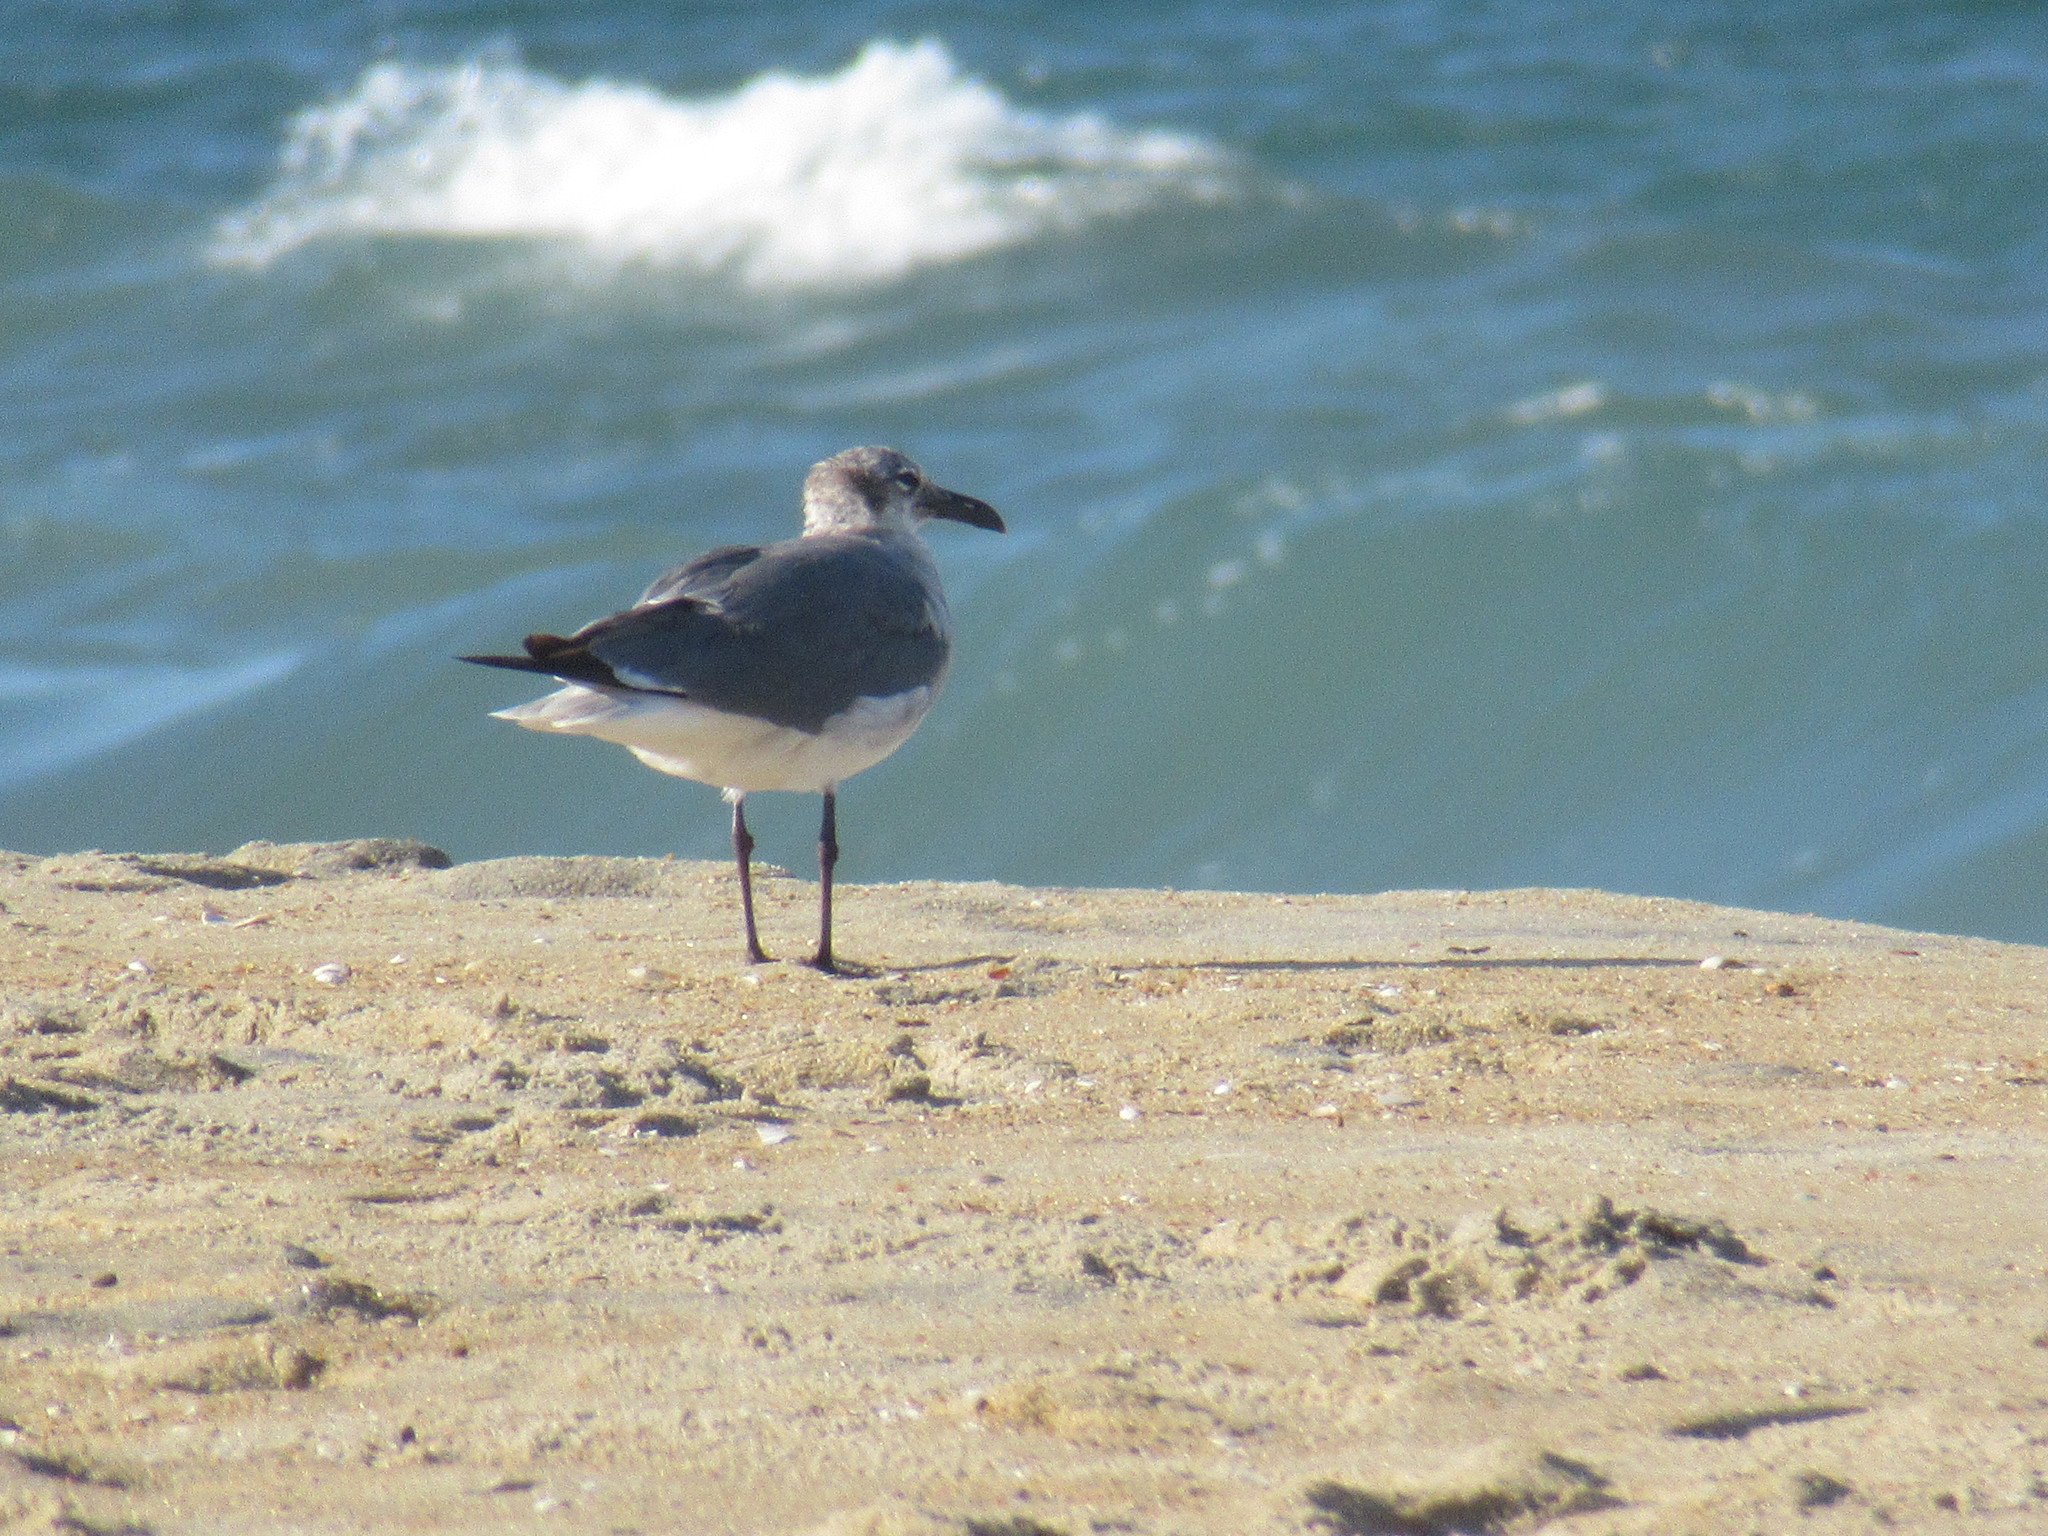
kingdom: Animalia
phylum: Chordata
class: Aves
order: Charadriiformes
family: Laridae
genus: Leucophaeus
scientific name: Leucophaeus atricilla
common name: Laughing gull
